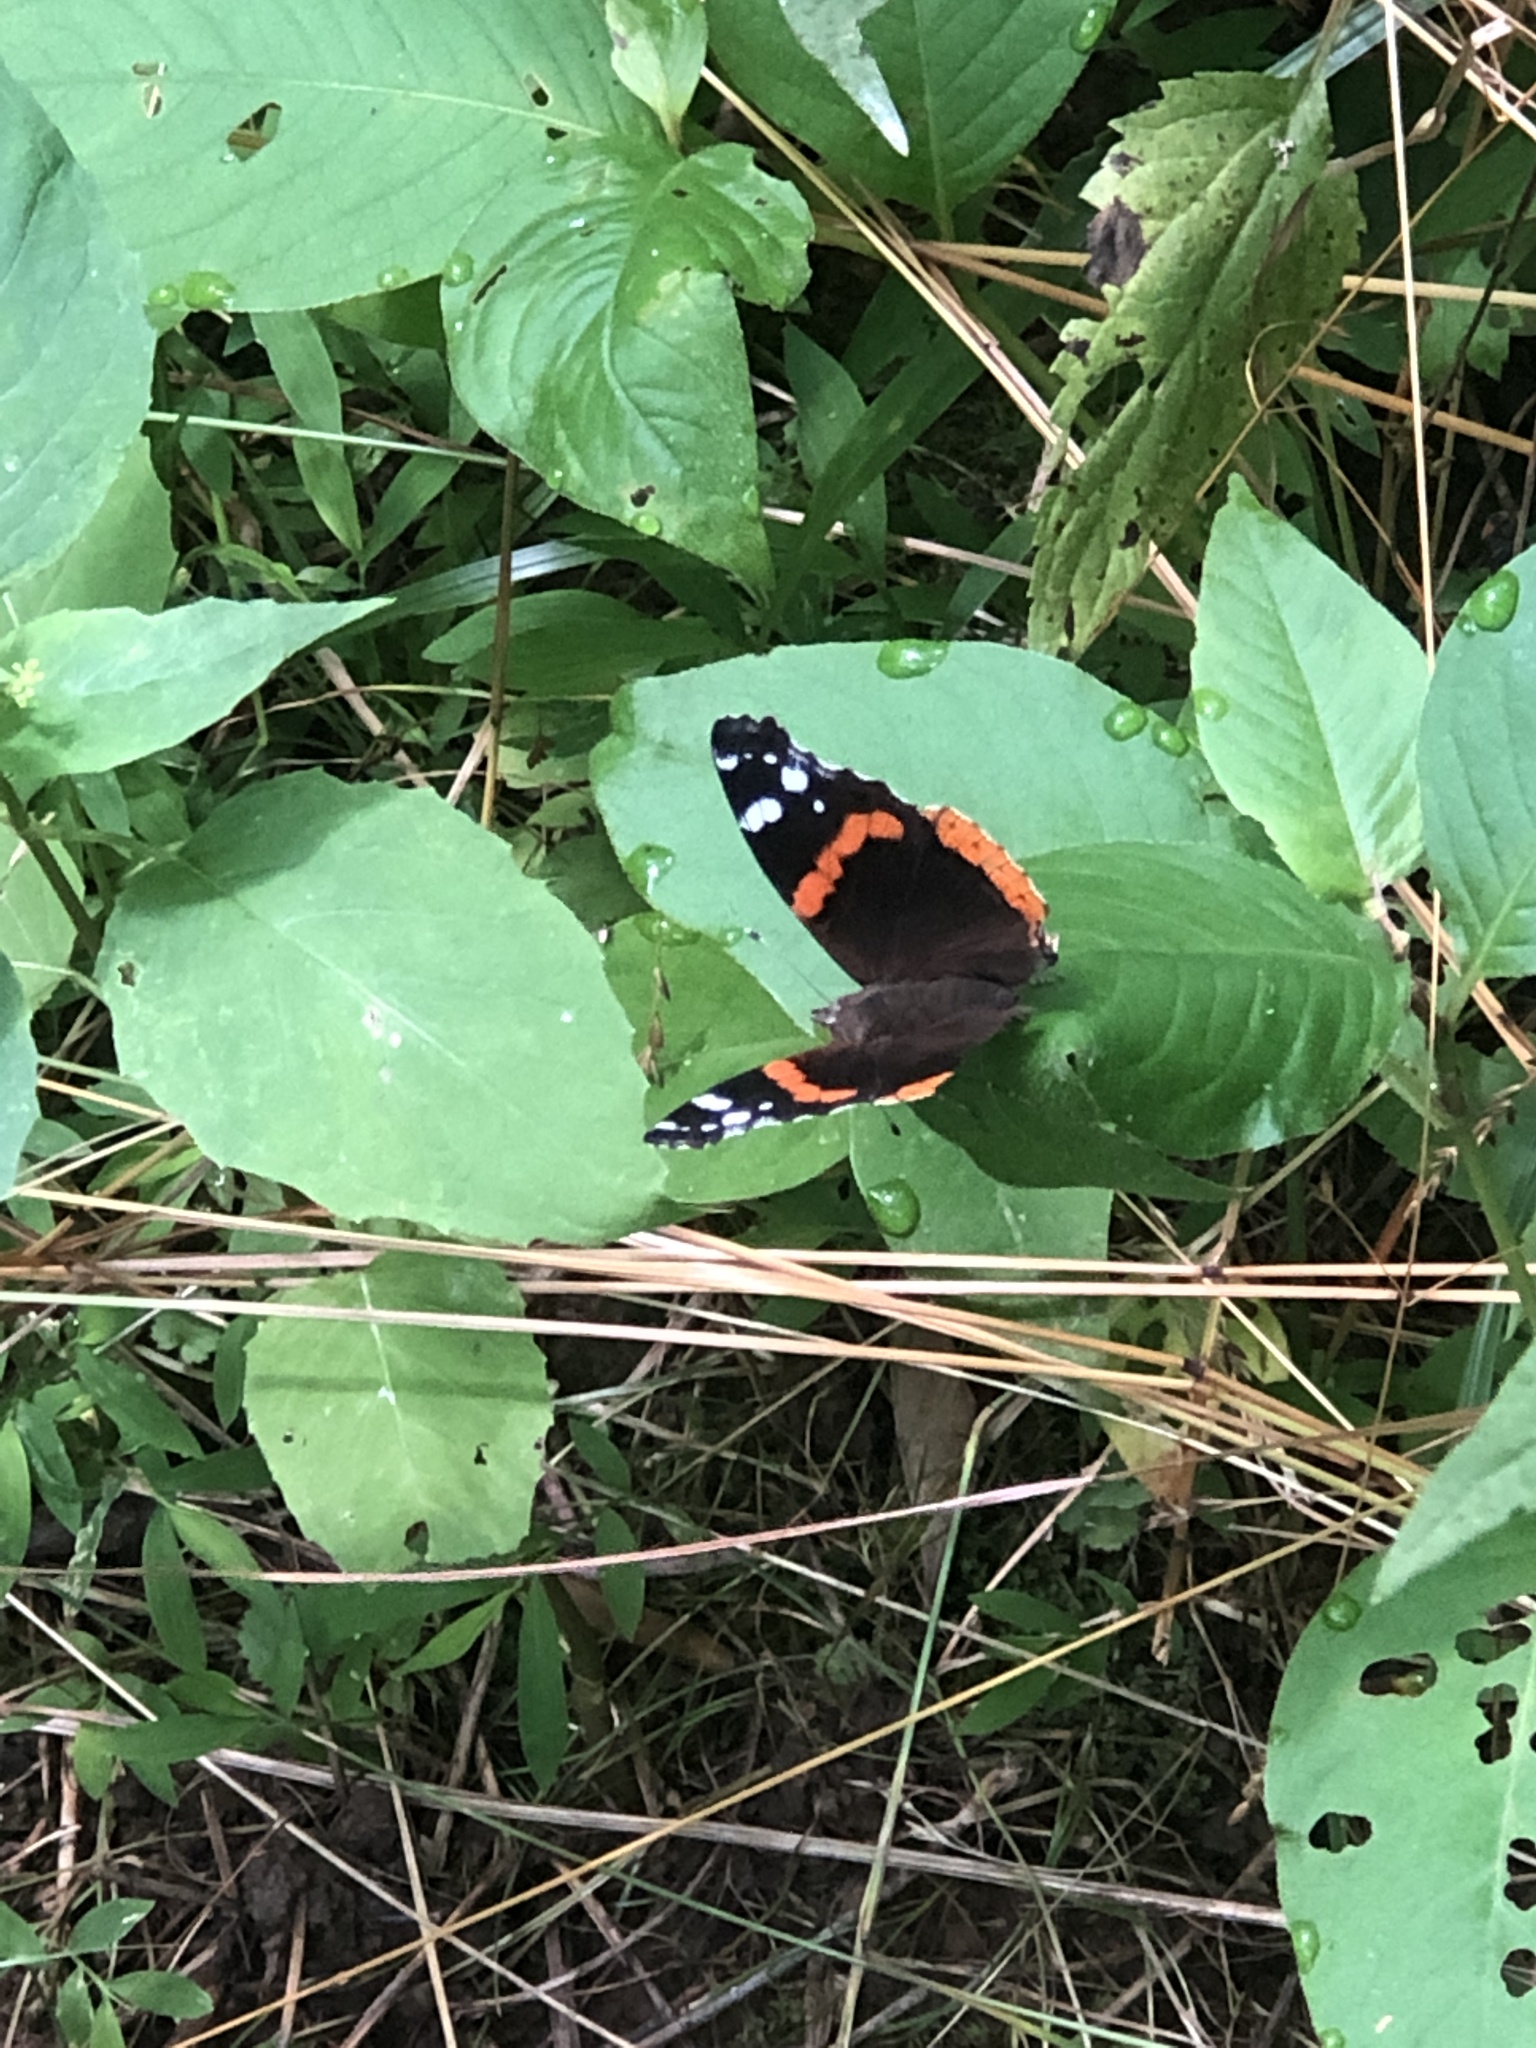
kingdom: Animalia
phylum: Arthropoda
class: Insecta
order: Lepidoptera
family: Nymphalidae
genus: Vanessa
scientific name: Vanessa atalanta
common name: Red admiral
